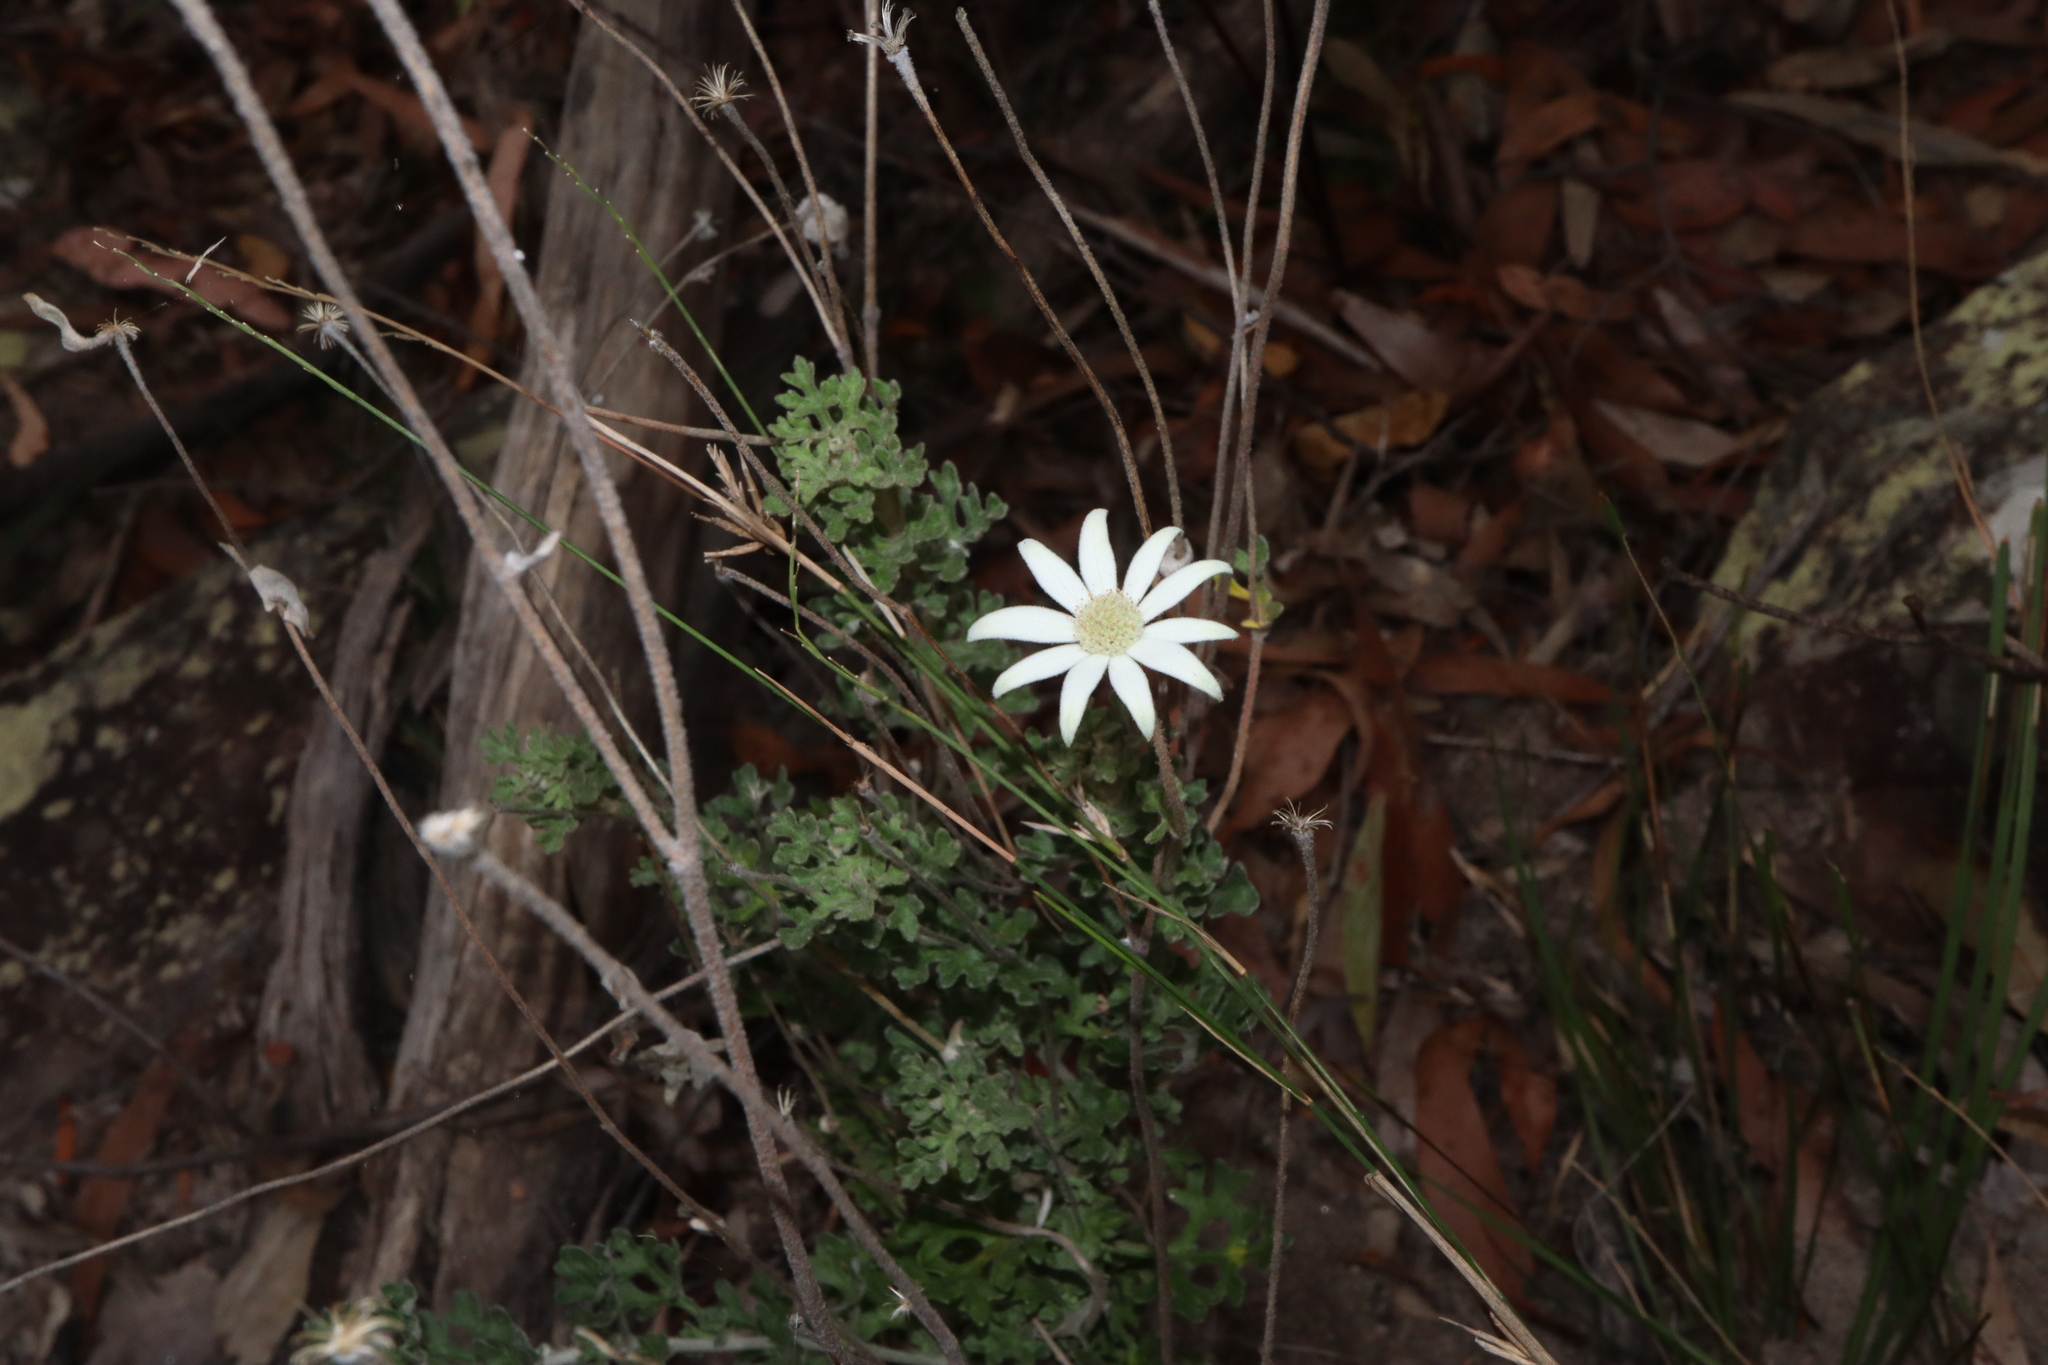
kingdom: Plantae
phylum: Tracheophyta
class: Magnoliopsida
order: Apiales
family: Apiaceae
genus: Actinotus
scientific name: Actinotus helianthi
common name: Flannel-flower
